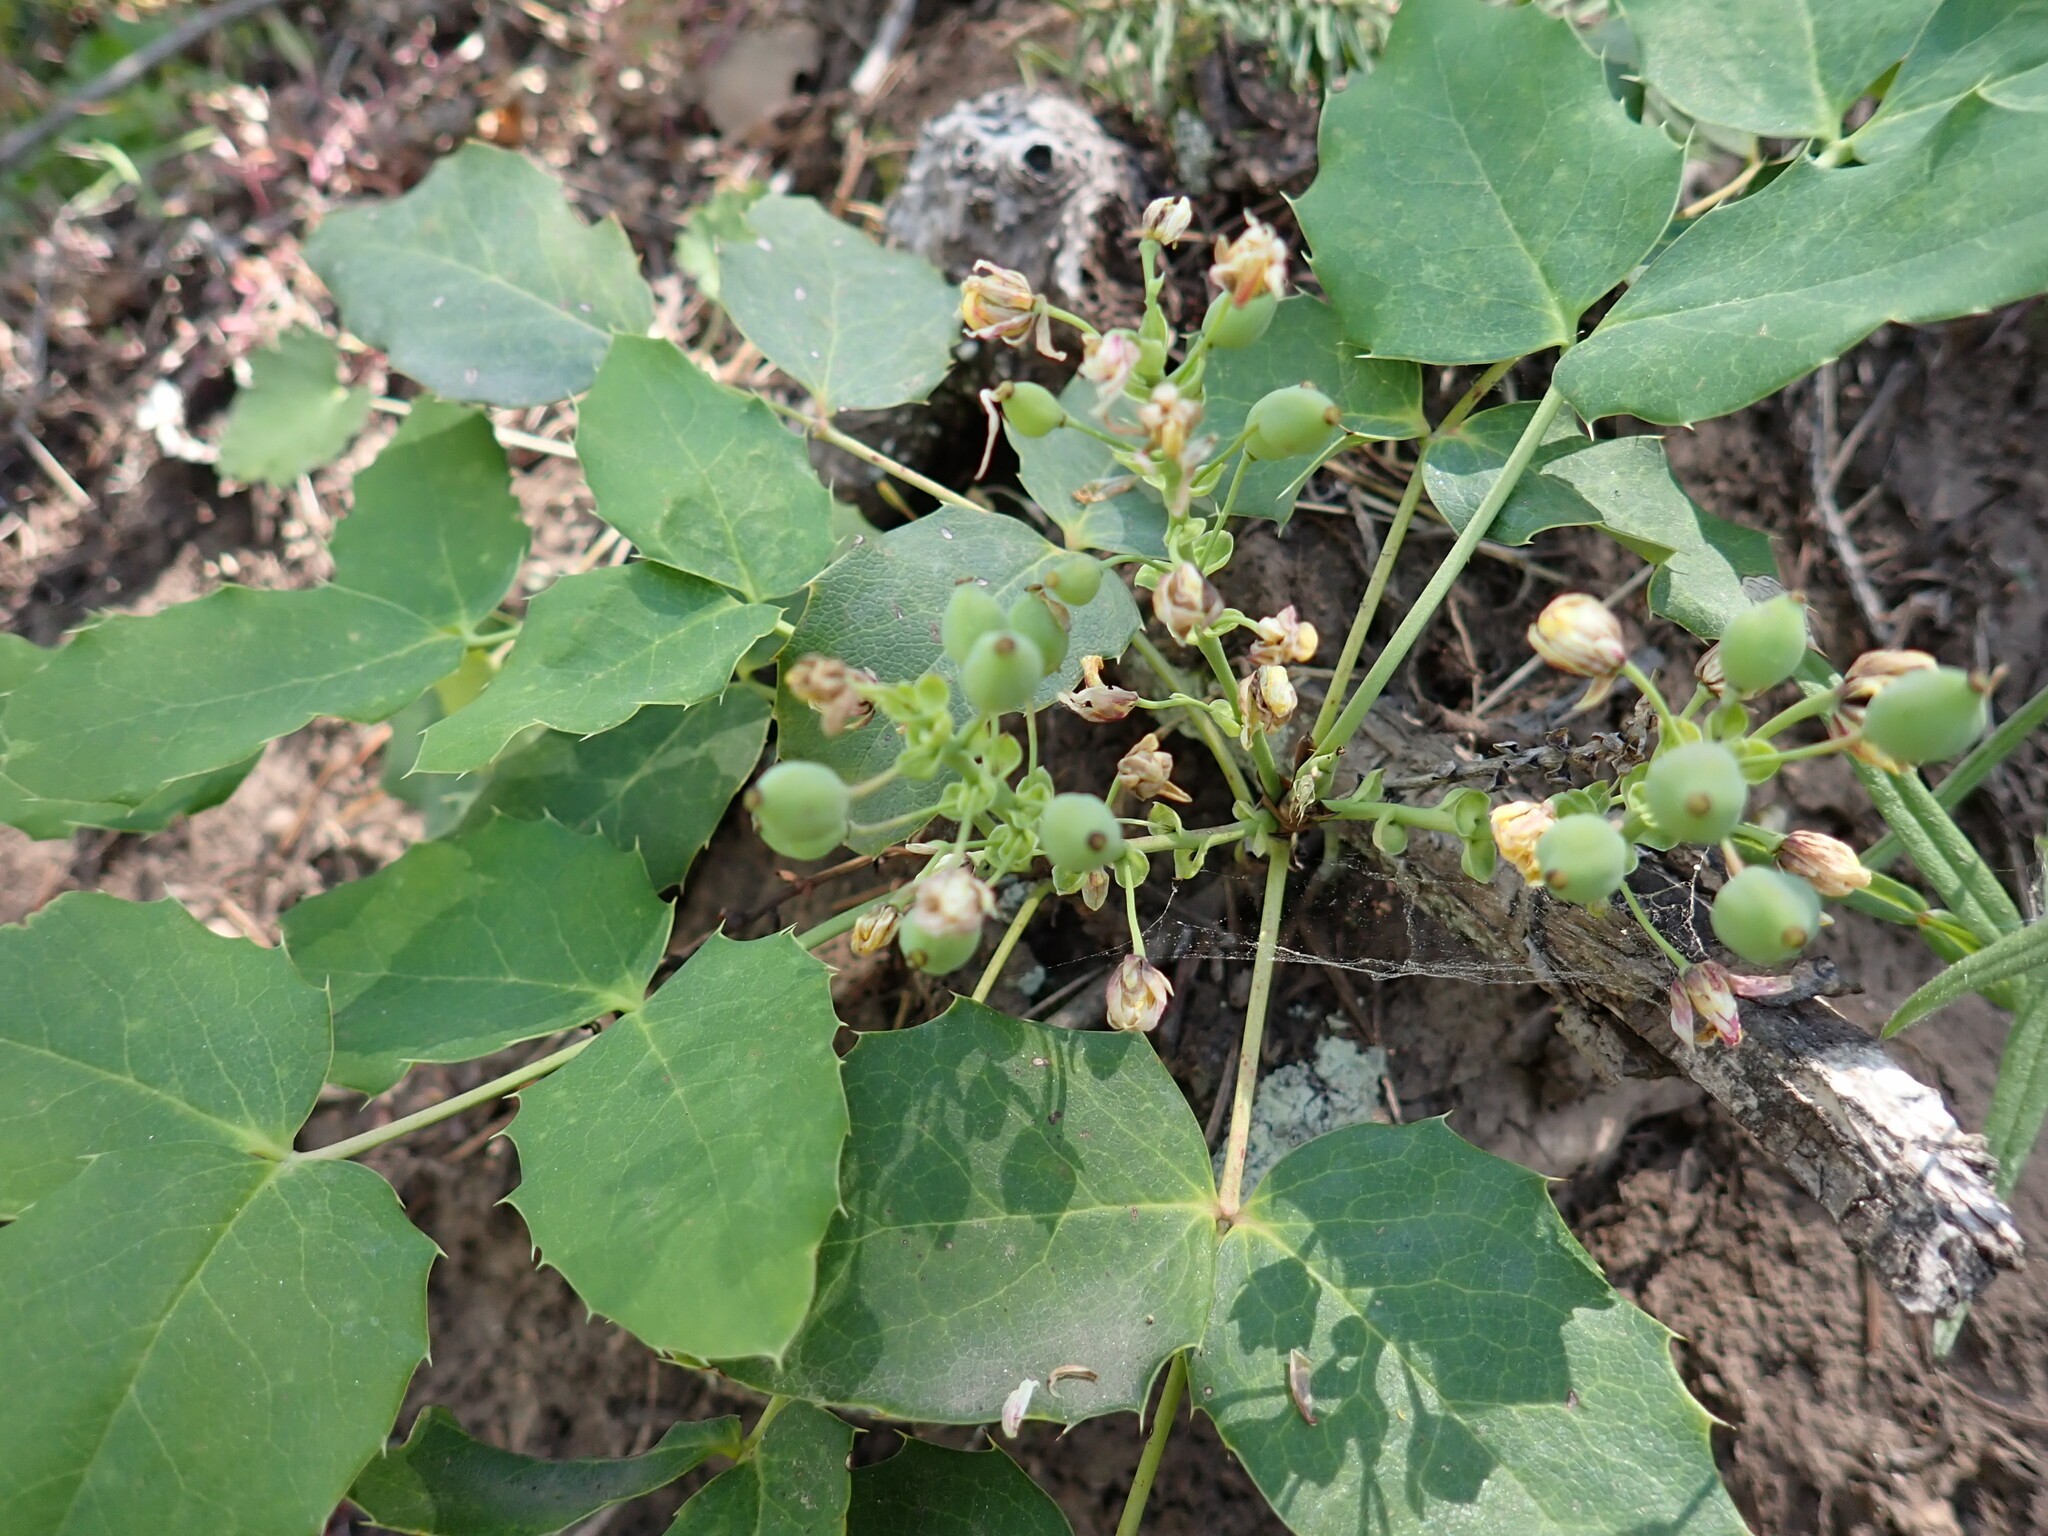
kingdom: Plantae
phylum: Tracheophyta
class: Magnoliopsida
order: Ranunculales
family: Berberidaceae
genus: Mahonia
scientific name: Mahonia repens
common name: Creeping oregon-grape
